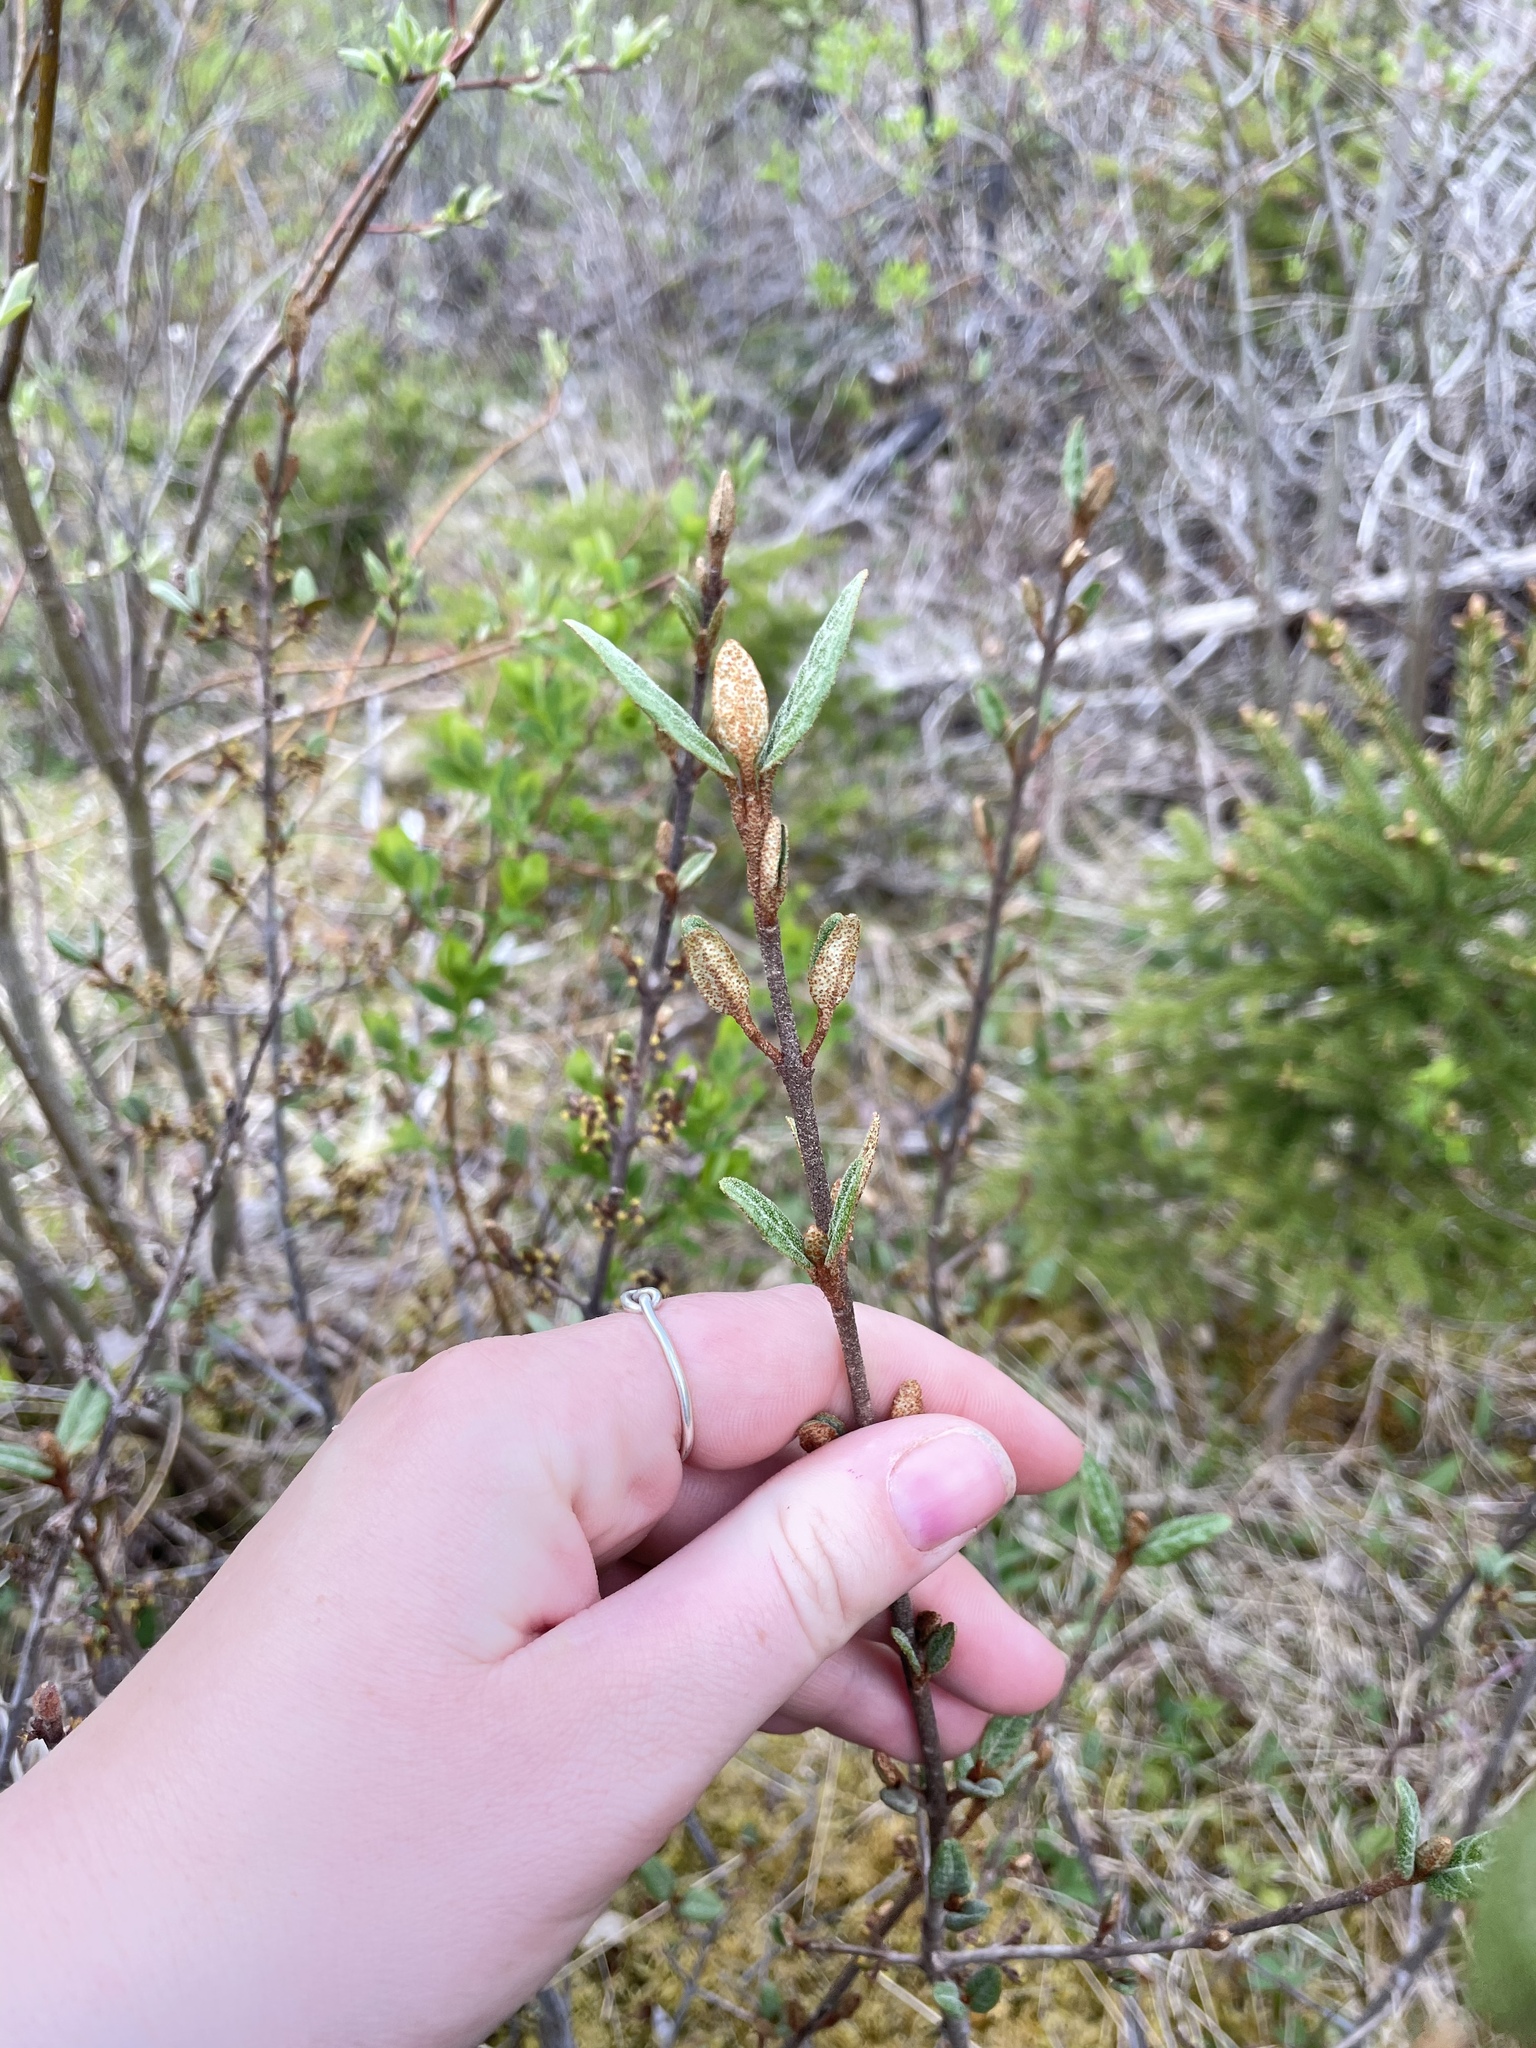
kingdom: Plantae
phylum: Tracheophyta
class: Magnoliopsida
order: Rosales
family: Elaeagnaceae
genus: Shepherdia
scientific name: Shepherdia canadensis
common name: Soapberry
